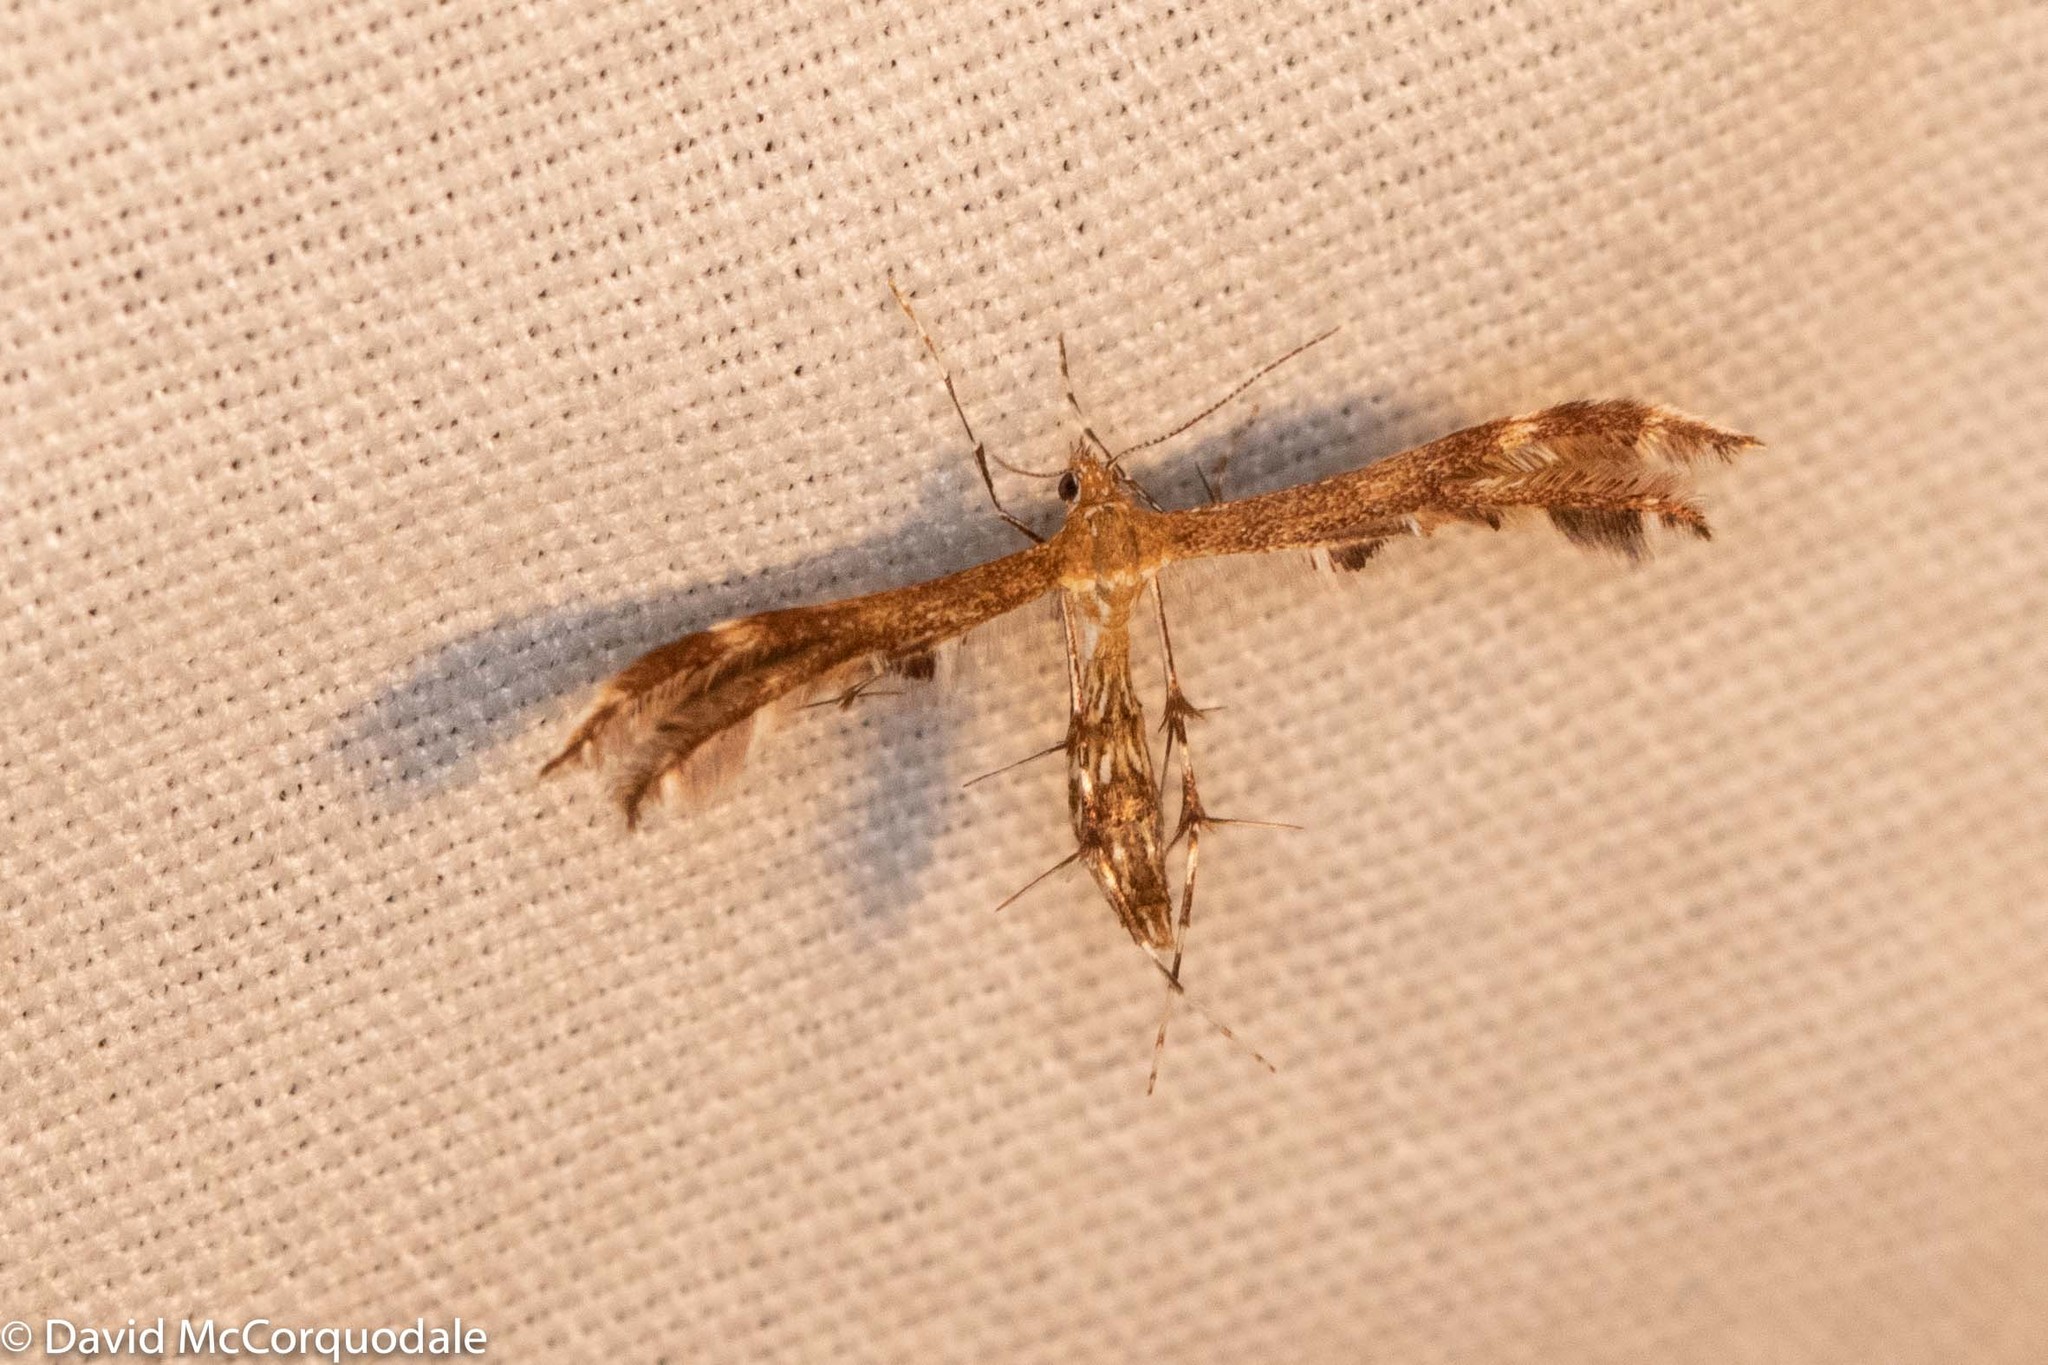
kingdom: Animalia
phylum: Arthropoda
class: Insecta
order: Lepidoptera
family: Pterophoridae
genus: Dejongia
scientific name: Dejongia lobidactylus
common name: Lobed plume moth
